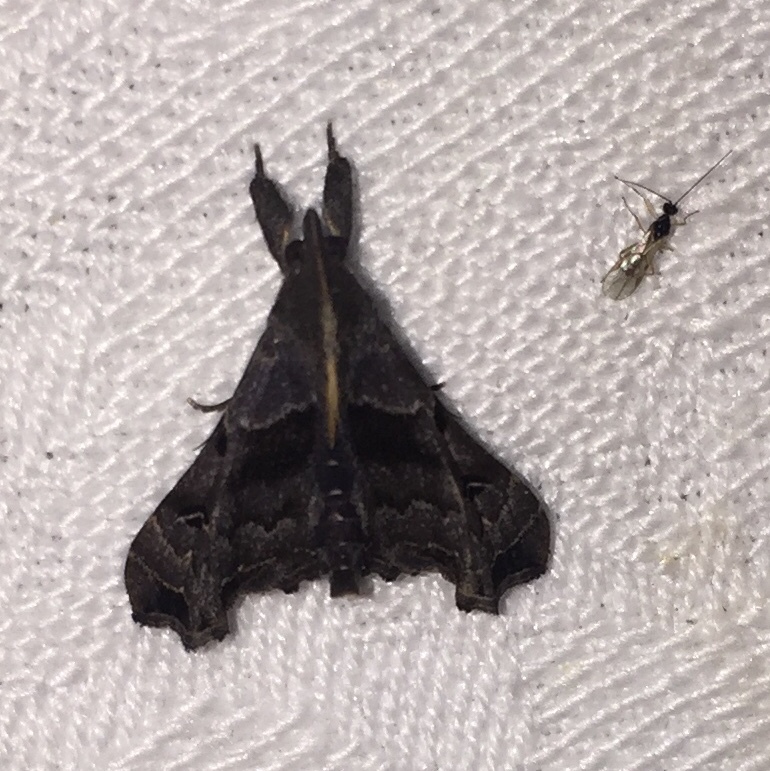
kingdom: Animalia
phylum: Arthropoda
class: Insecta
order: Lepidoptera
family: Erebidae
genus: Palthis
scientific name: Palthis asopialis
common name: Faint-spotted palthis moth
